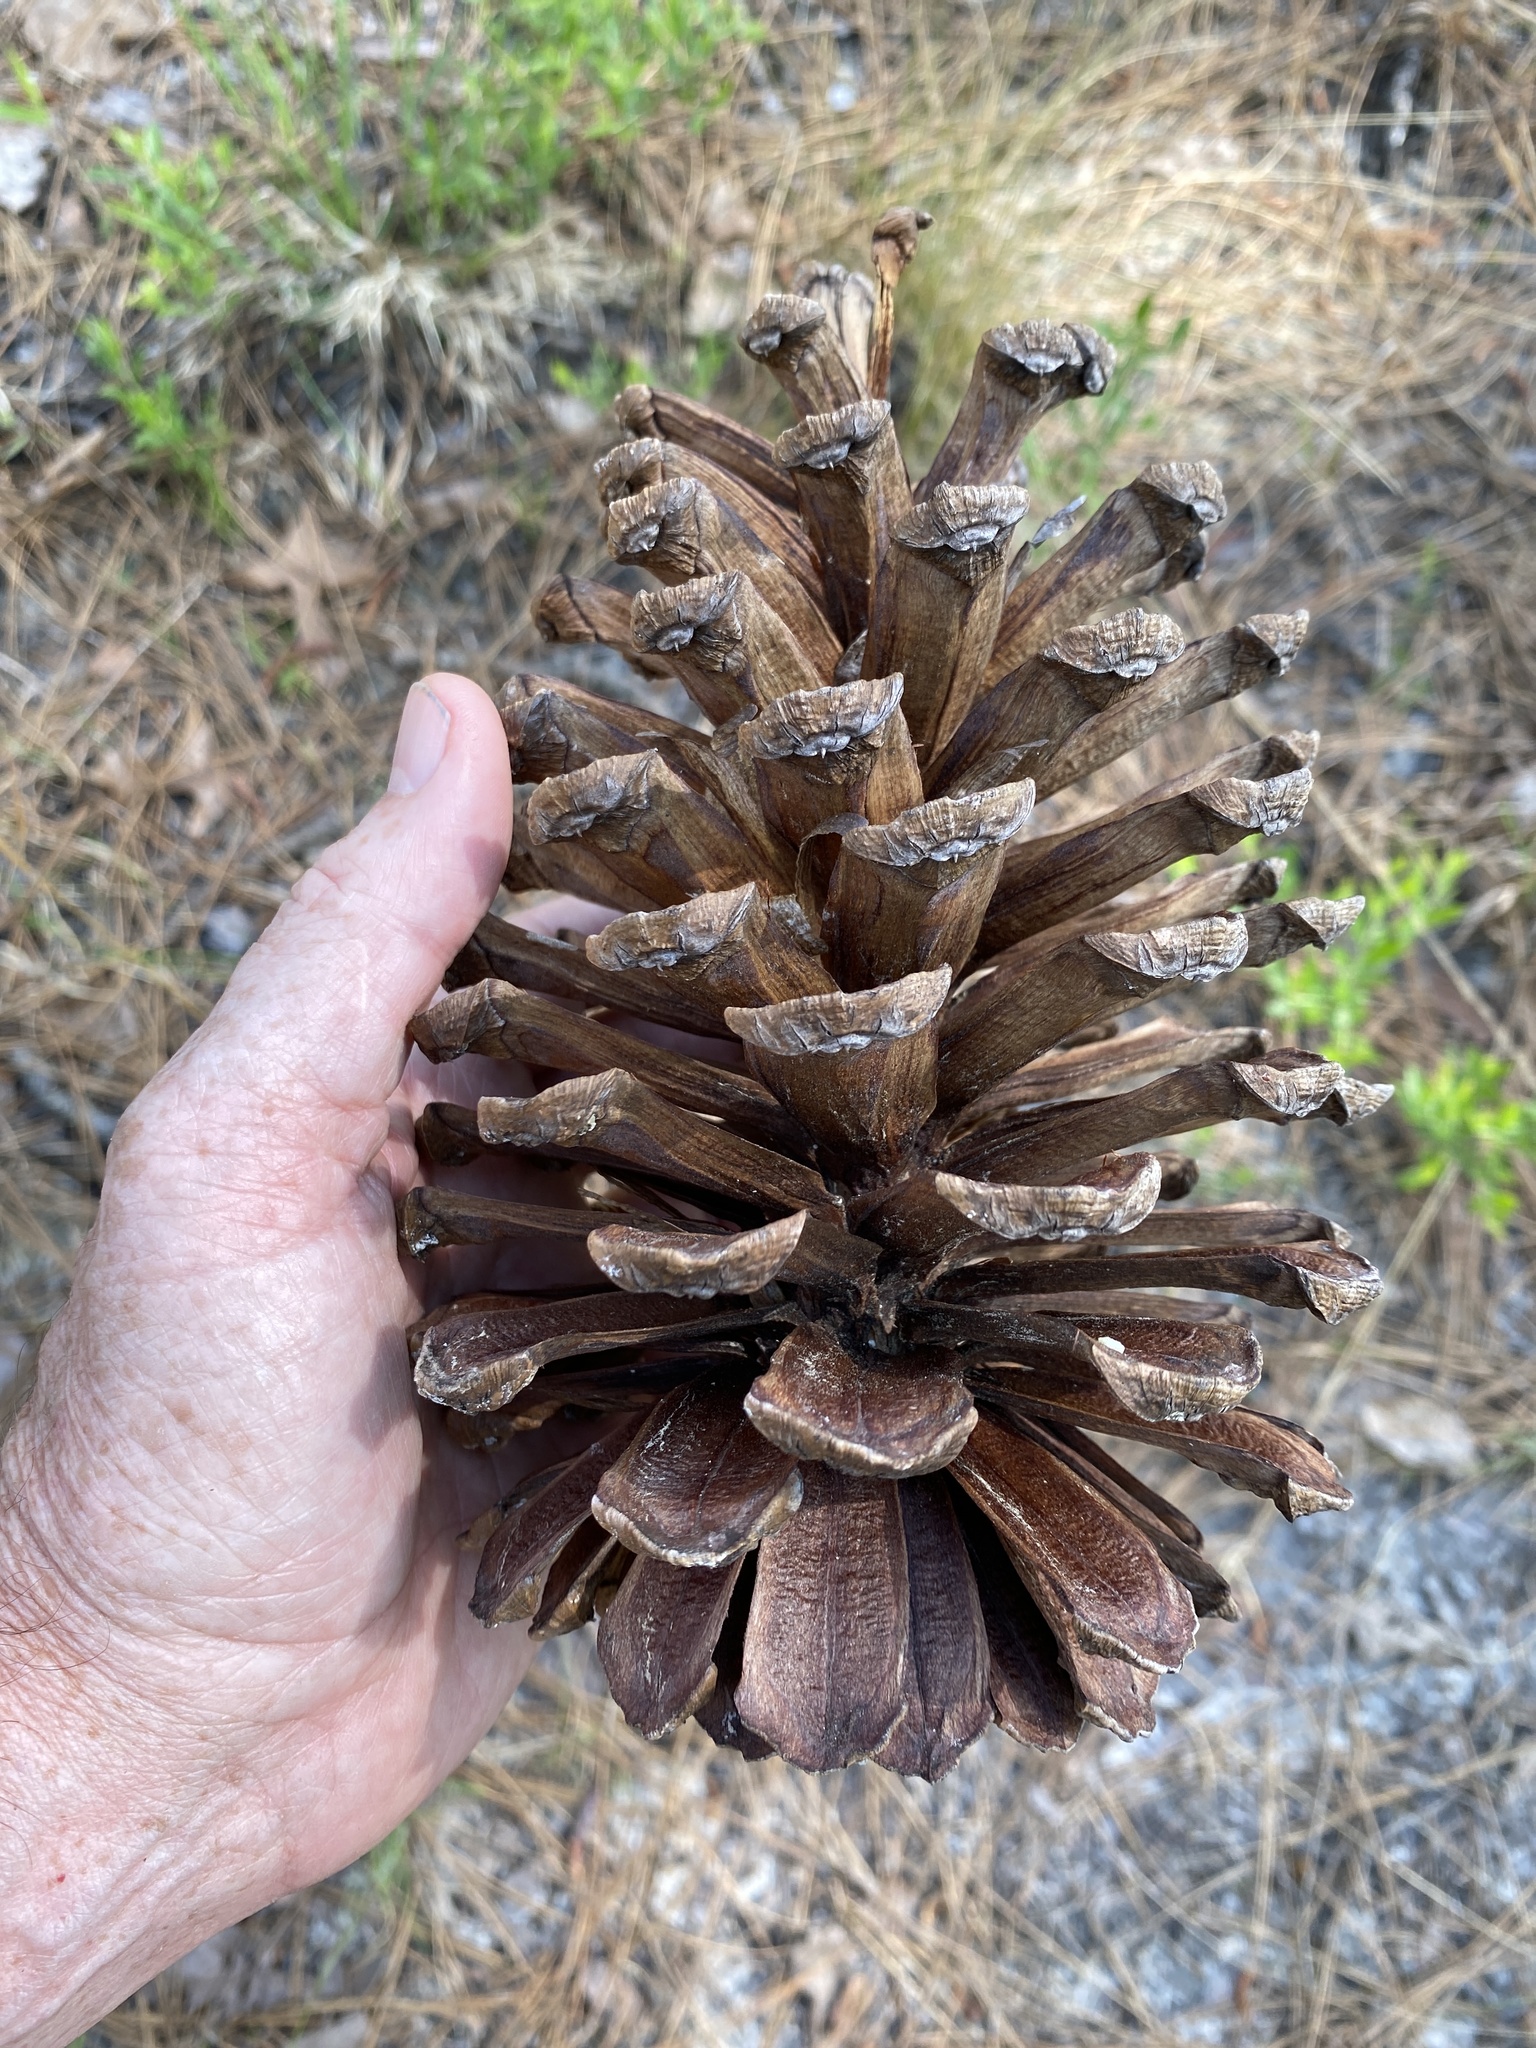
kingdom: Plantae
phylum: Tracheophyta
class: Pinopsida
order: Pinales
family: Pinaceae
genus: Pinus
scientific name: Pinus palustris
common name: Longleaf pine
